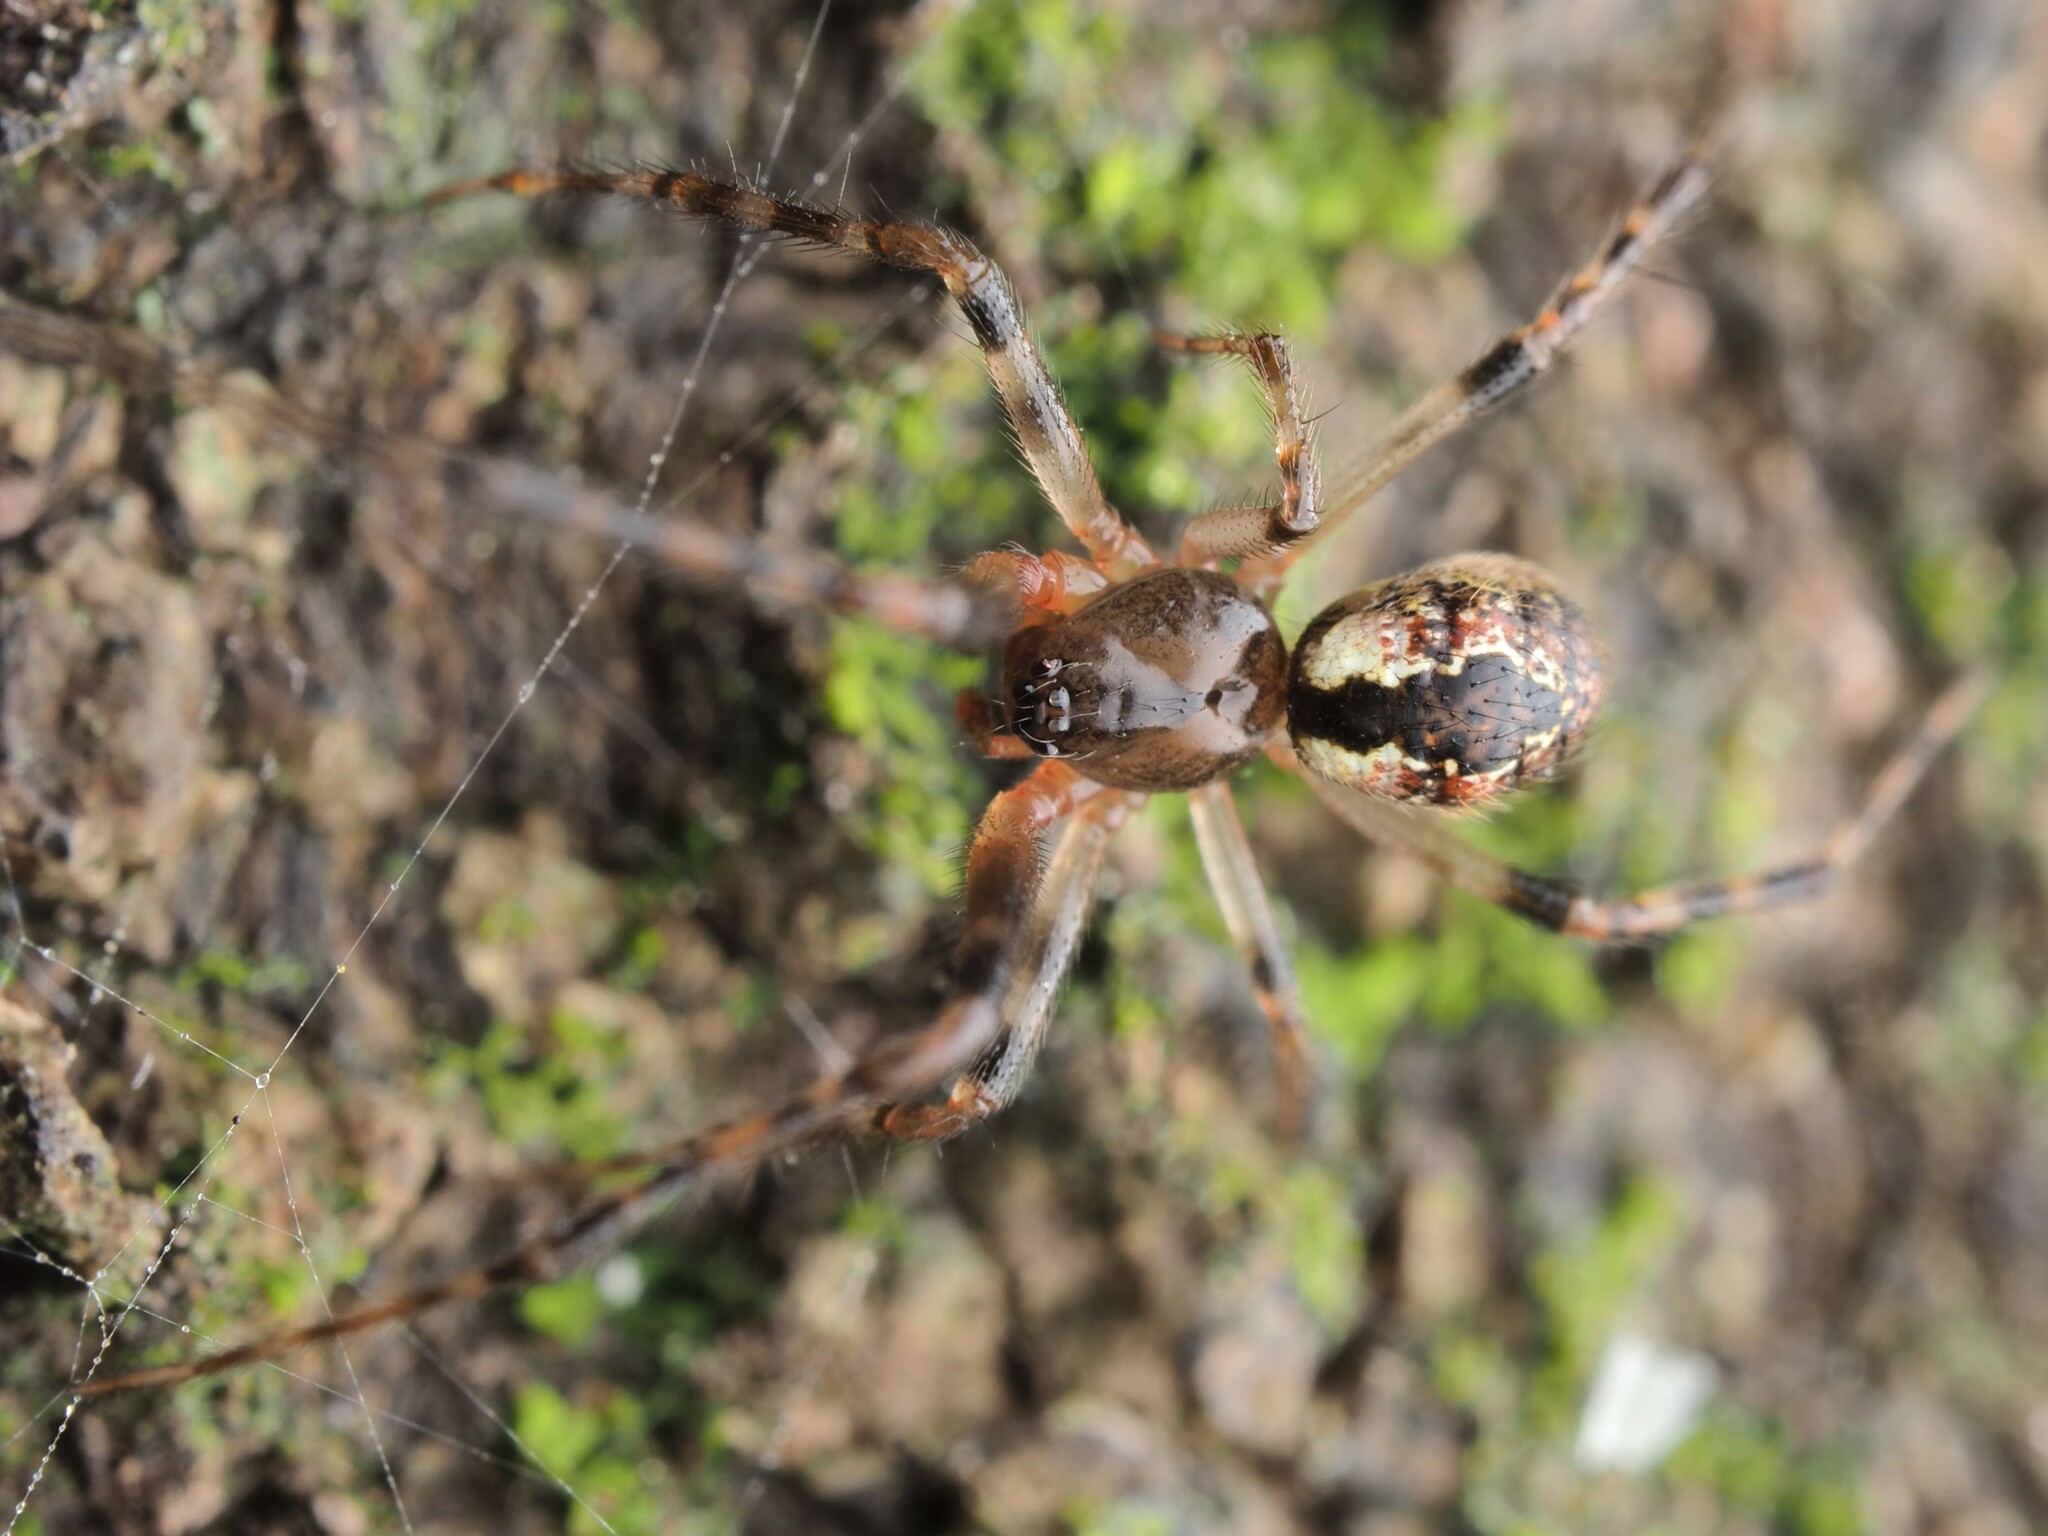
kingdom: Animalia
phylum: Arthropoda
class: Arachnida
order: Araneae
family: Theridiidae
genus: Cryptachaea
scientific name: Cryptachaea veruculata
